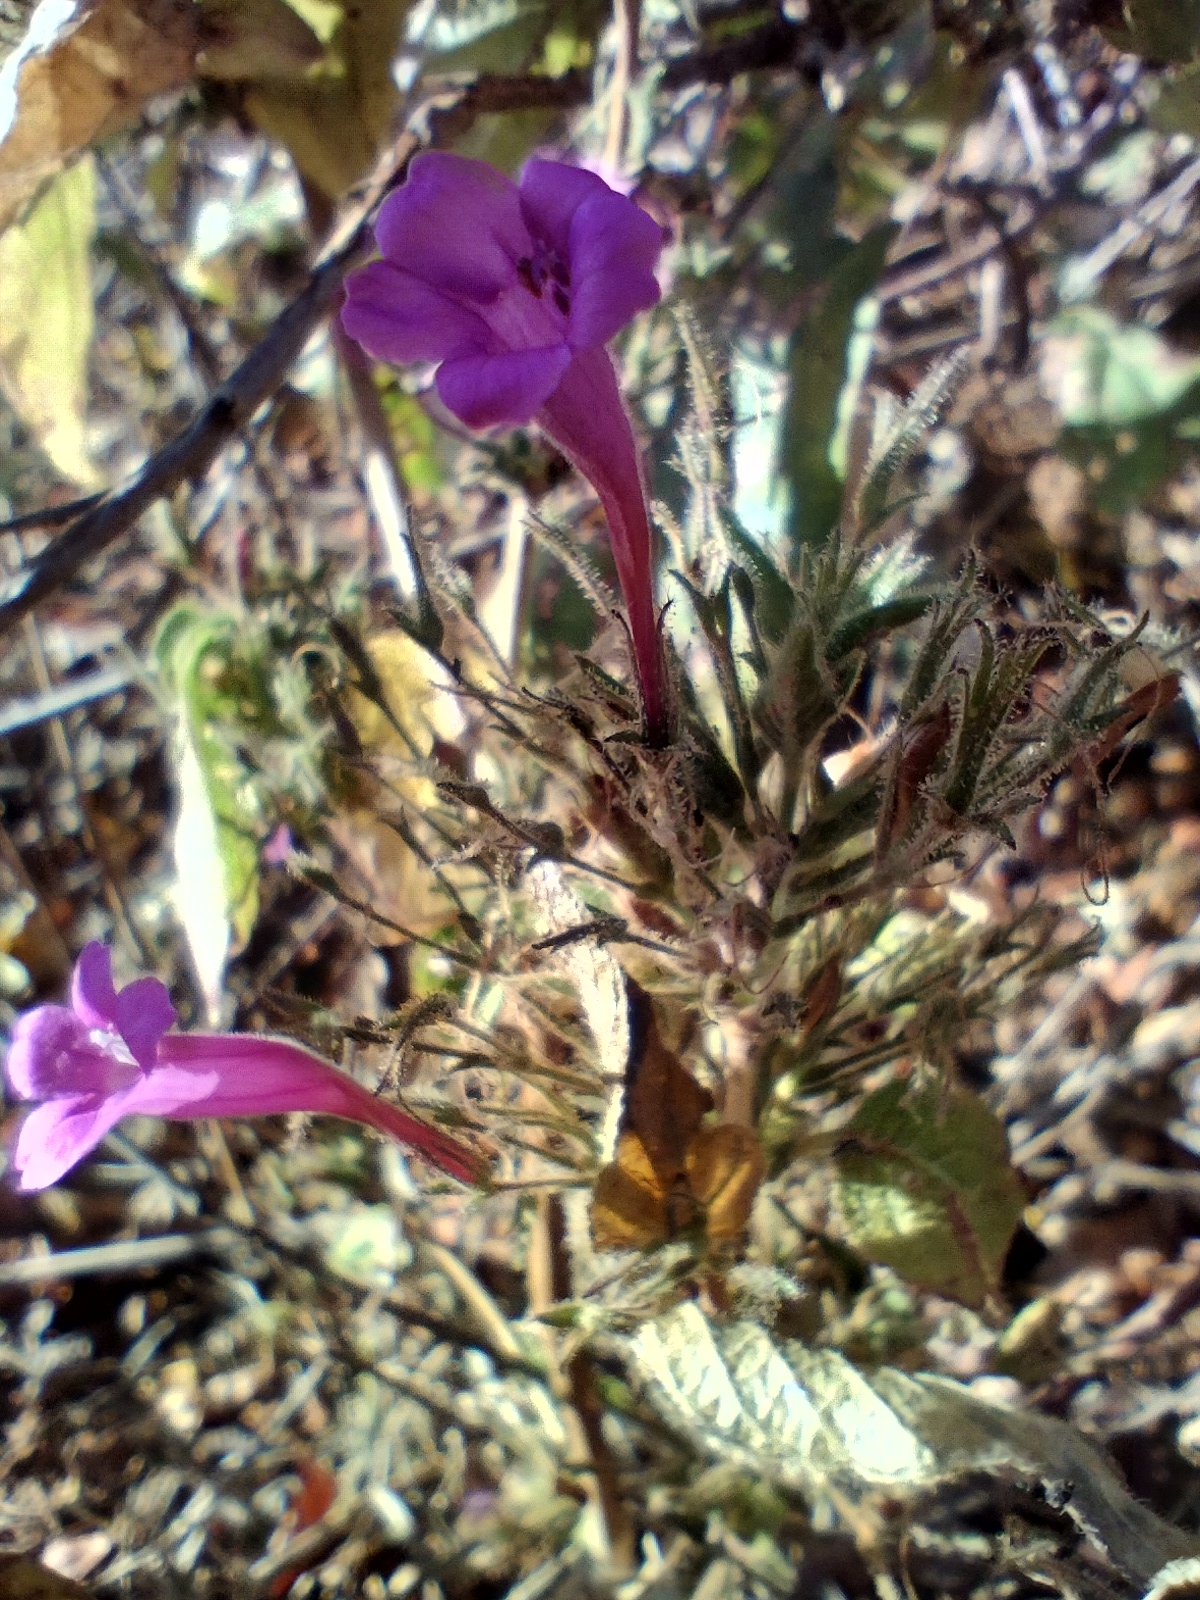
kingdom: Plantae
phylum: Tracheophyta
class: Magnoliopsida
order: Lamiales
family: Acanthaceae
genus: Ruellia
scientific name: Ruellia inundata
